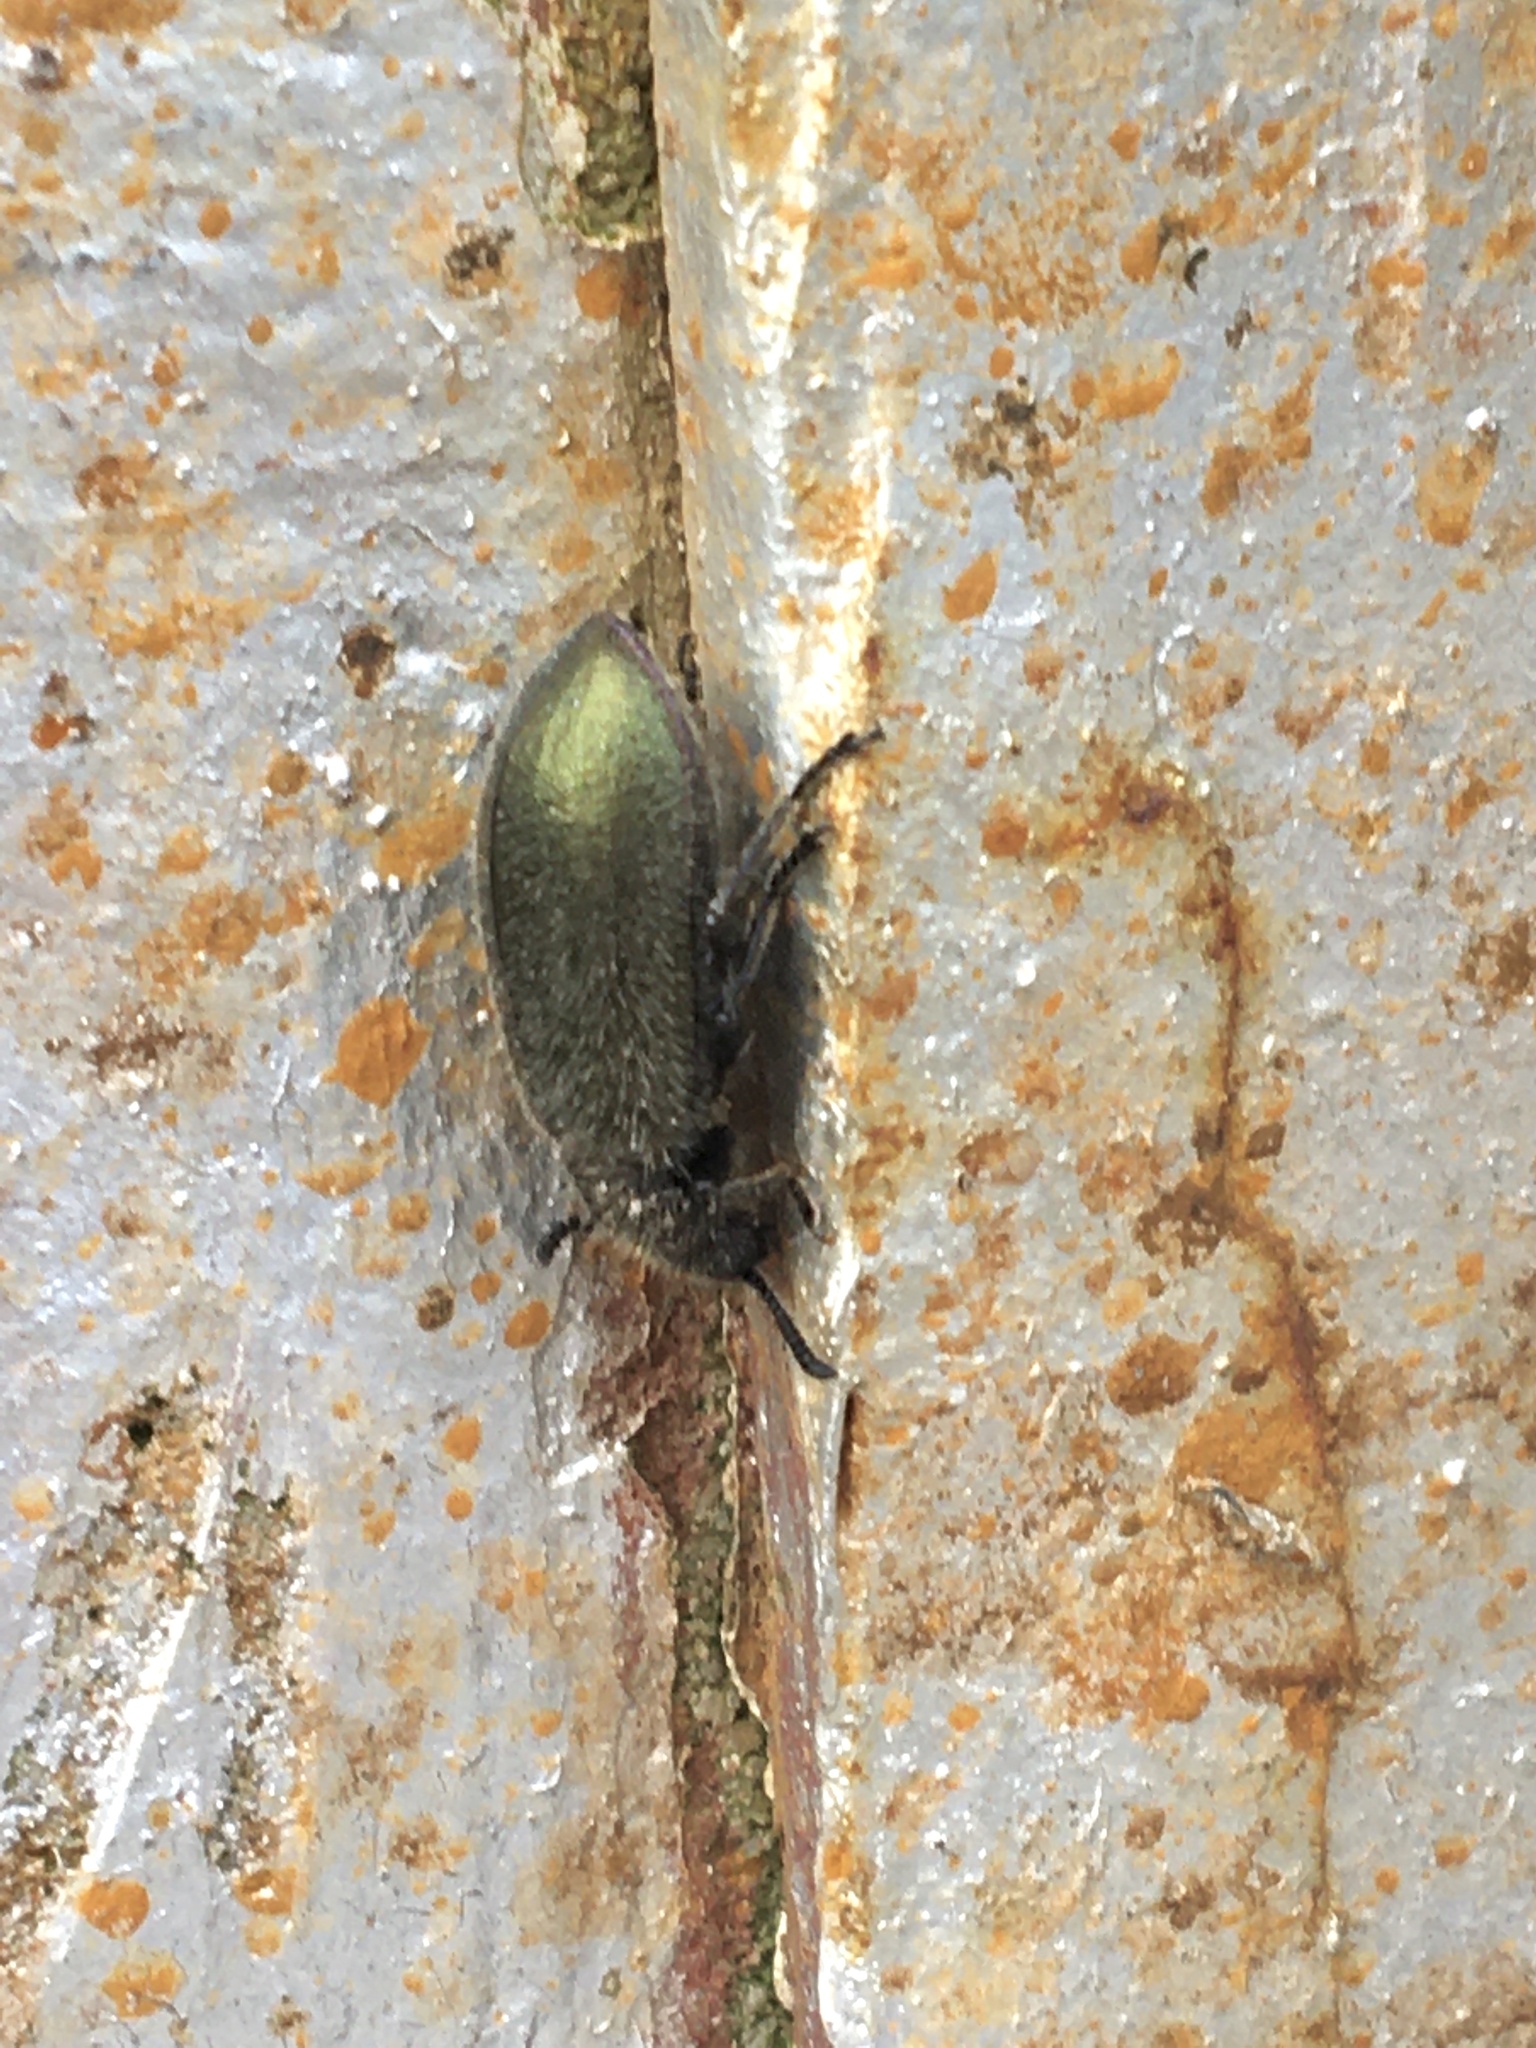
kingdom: Animalia
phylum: Arthropoda
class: Insecta
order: Coleoptera
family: Tenebrionidae
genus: Lagria
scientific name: Lagria villosa
